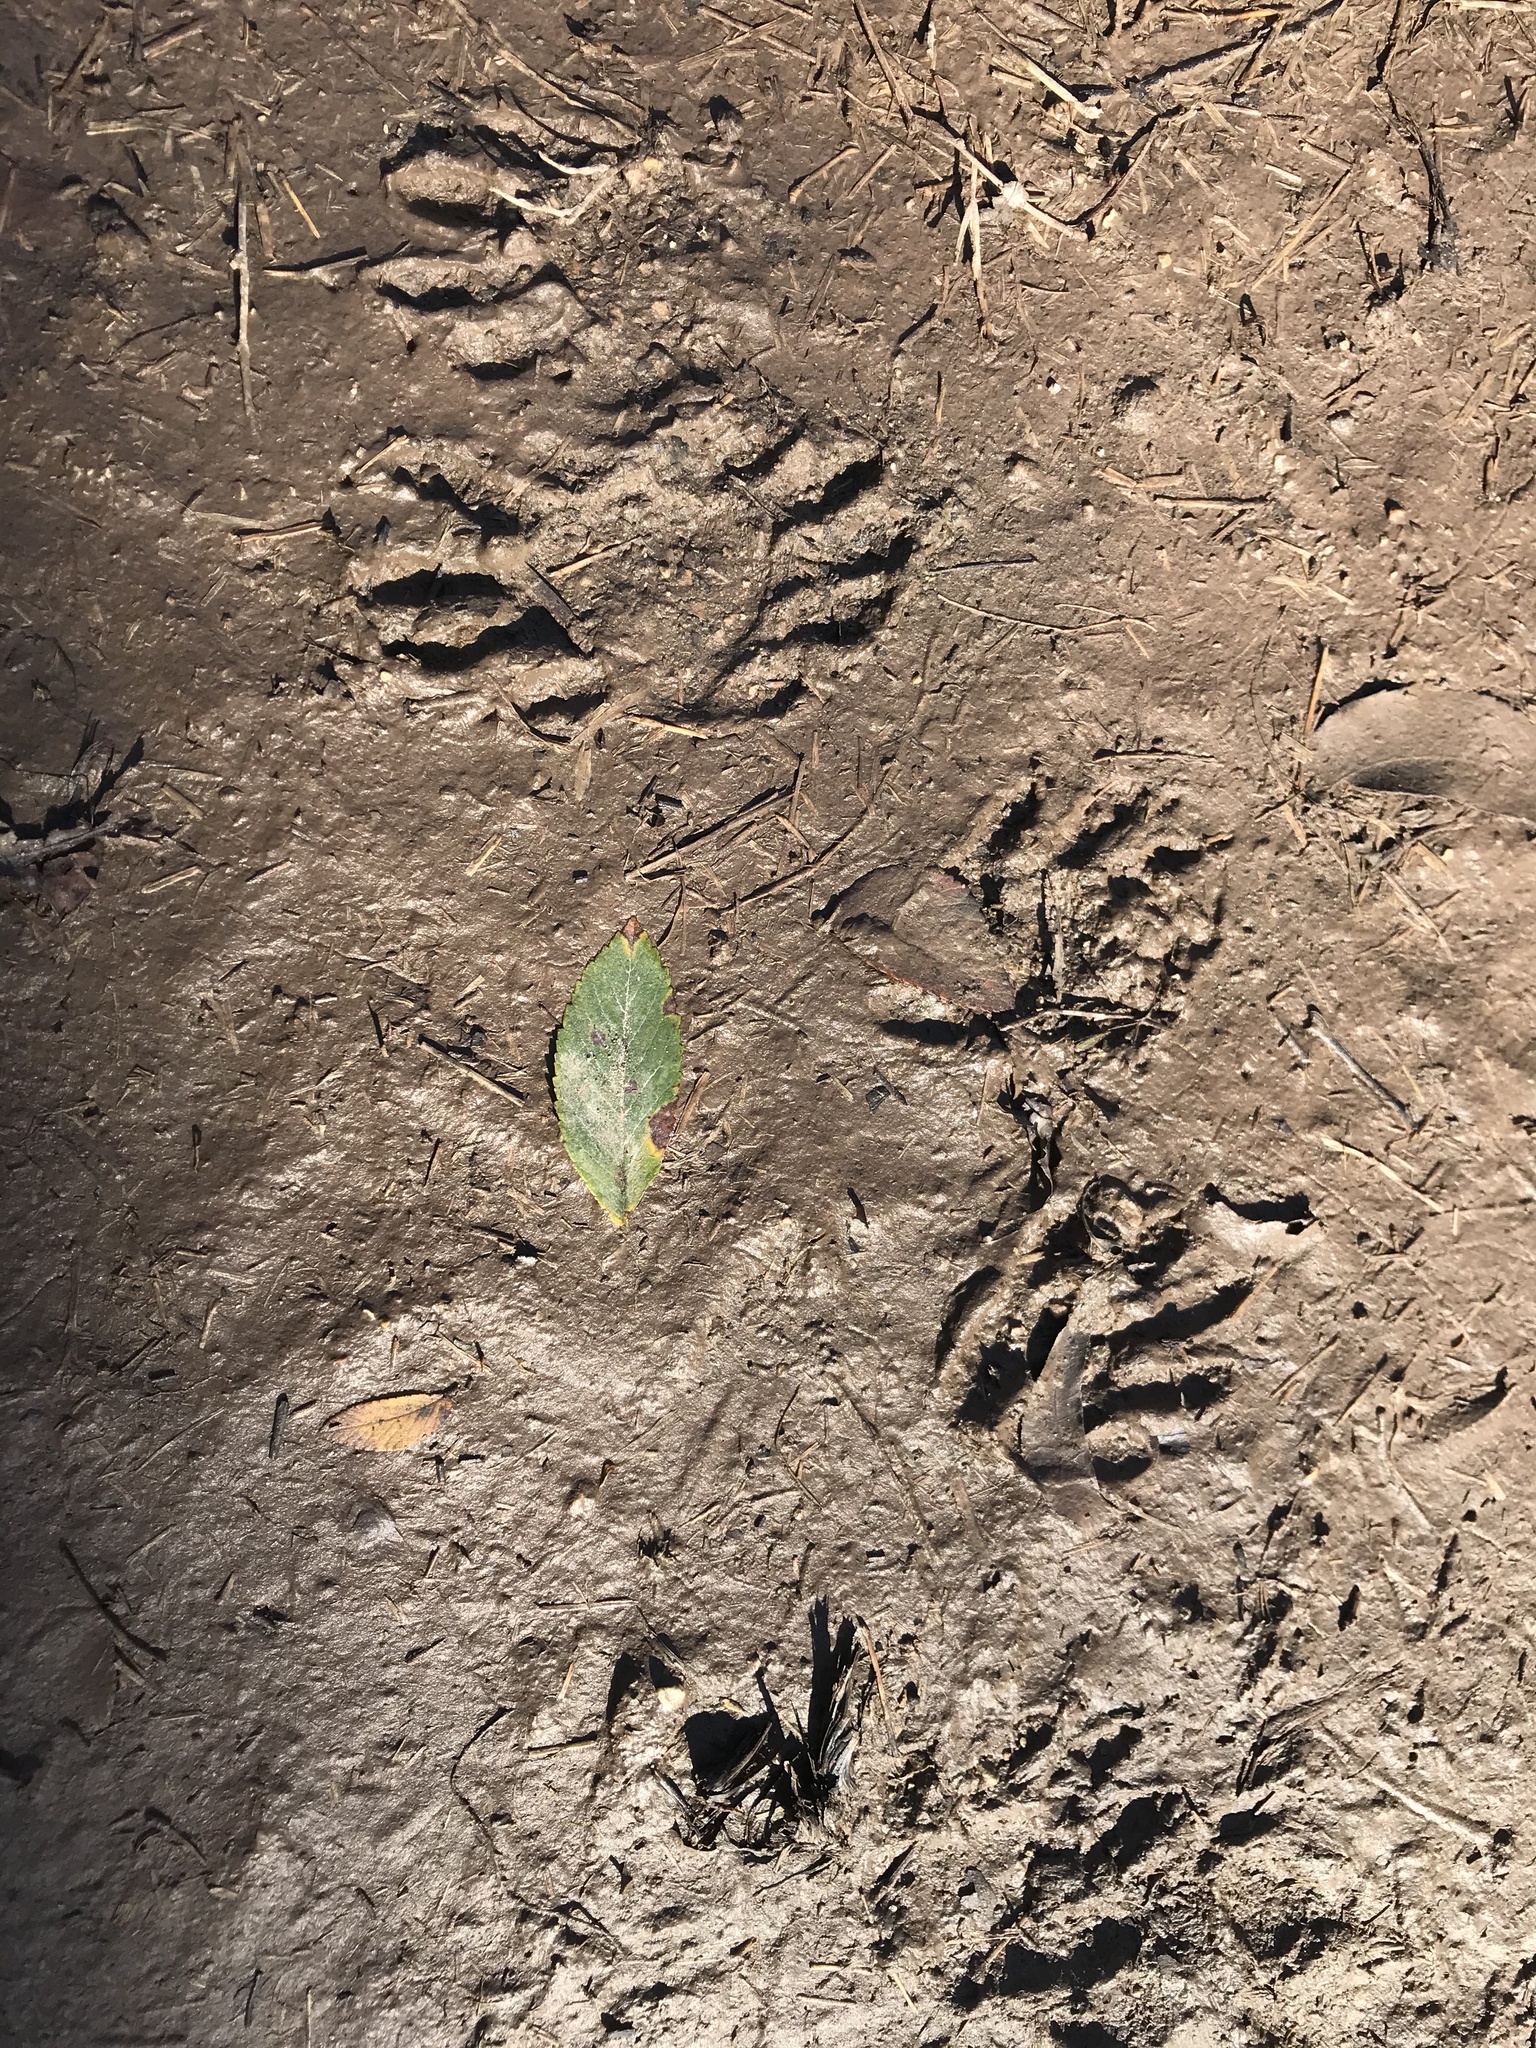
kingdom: Animalia
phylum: Chordata
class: Mammalia
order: Carnivora
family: Procyonidae
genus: Procyon
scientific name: Procyon lotor
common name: Raccoon
